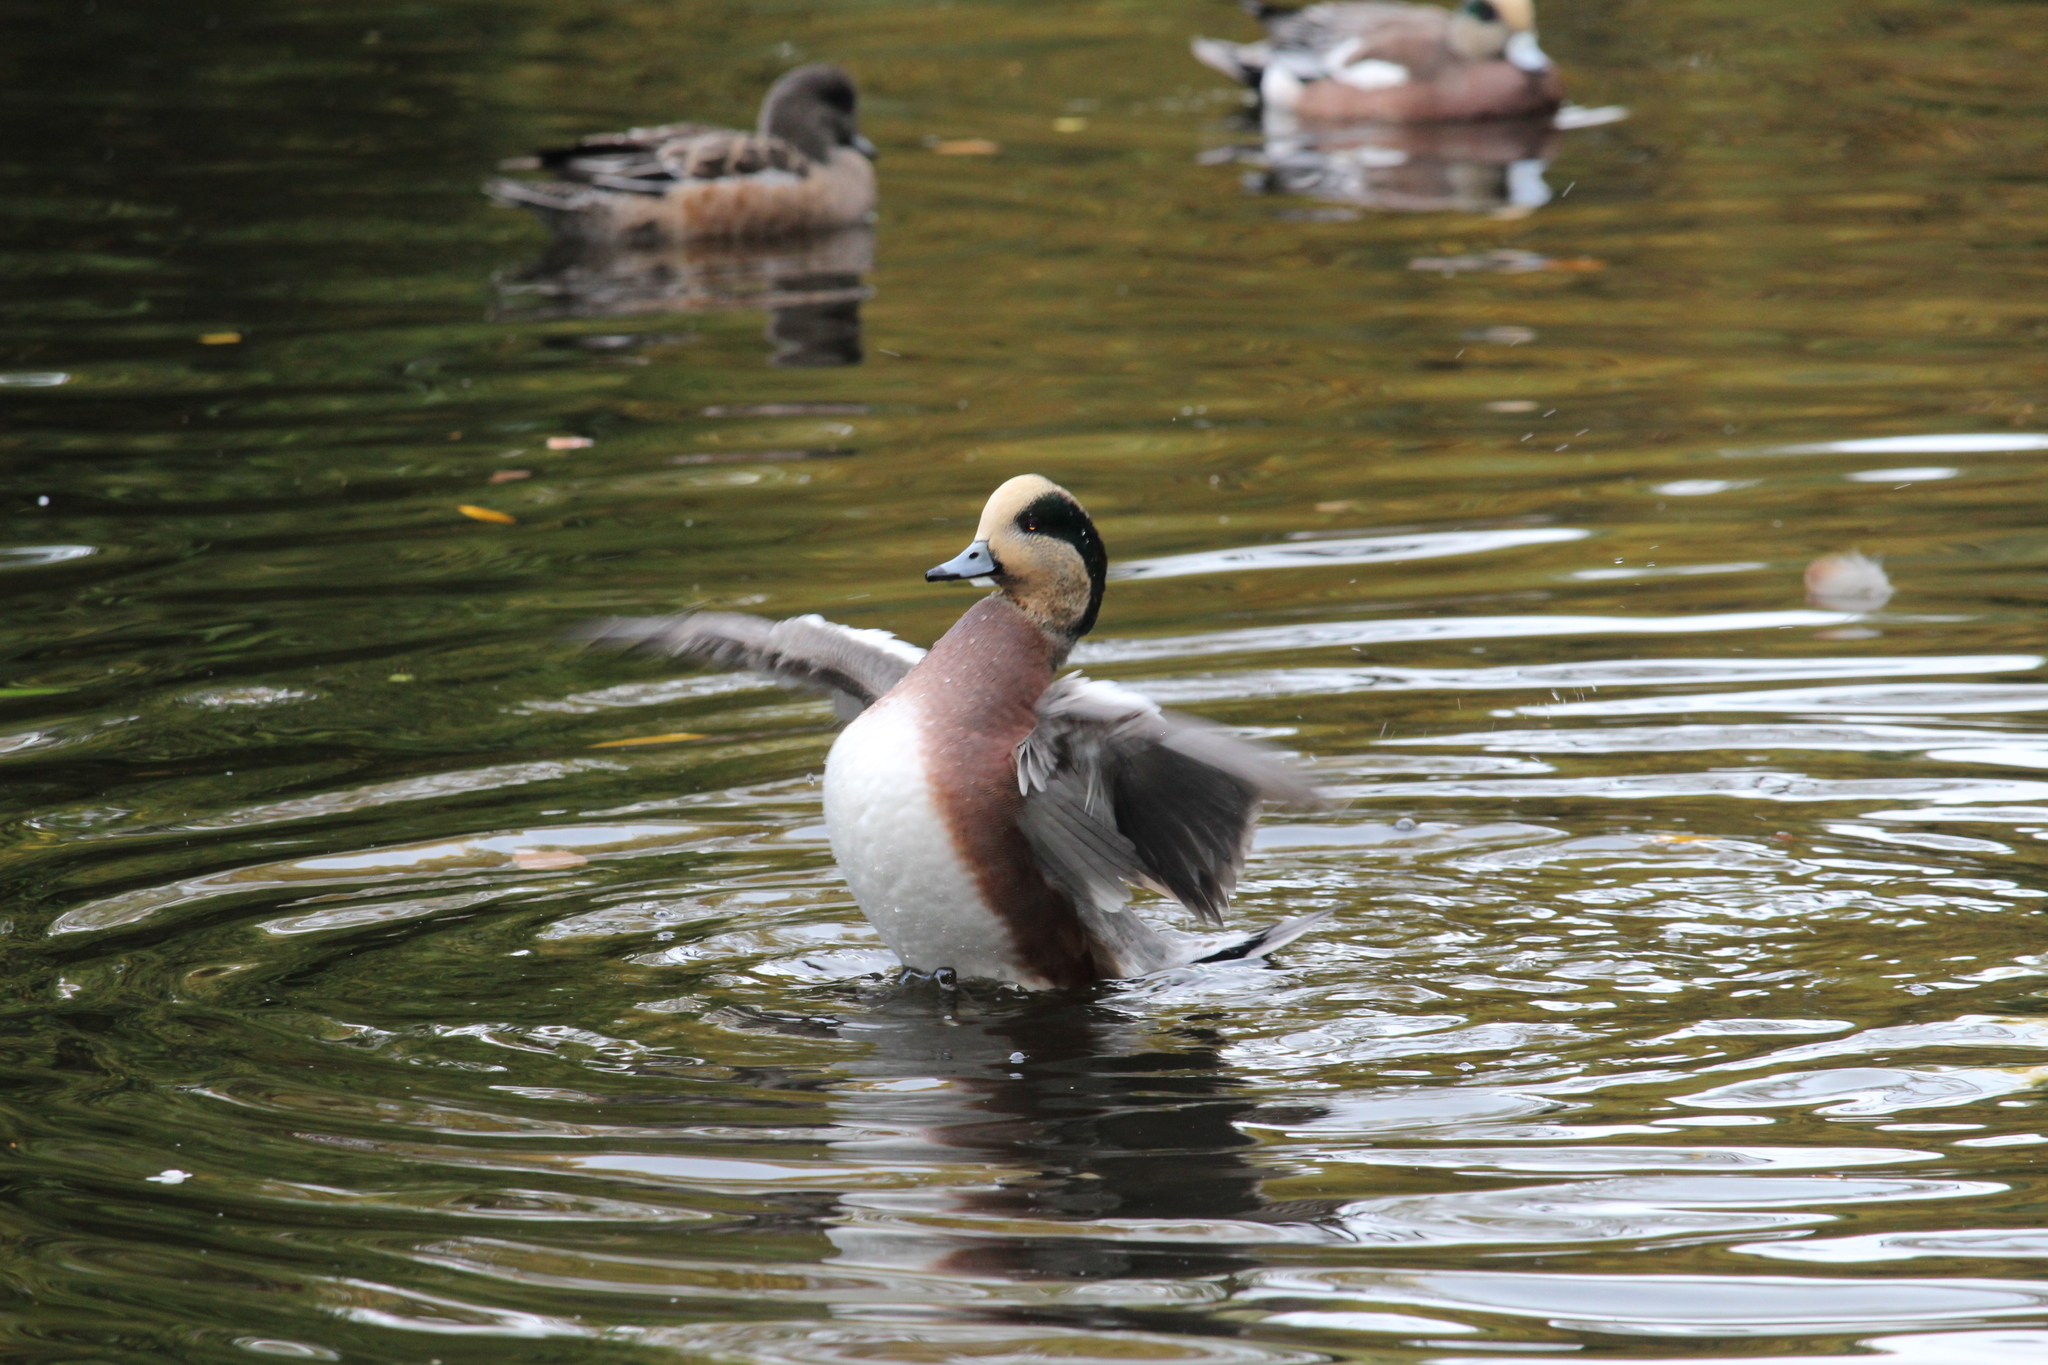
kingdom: Animalia
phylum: Chordata
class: Aves
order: Anseriformes
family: Anatidae
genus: Mareca
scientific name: Mareca americana
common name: American wigeon
